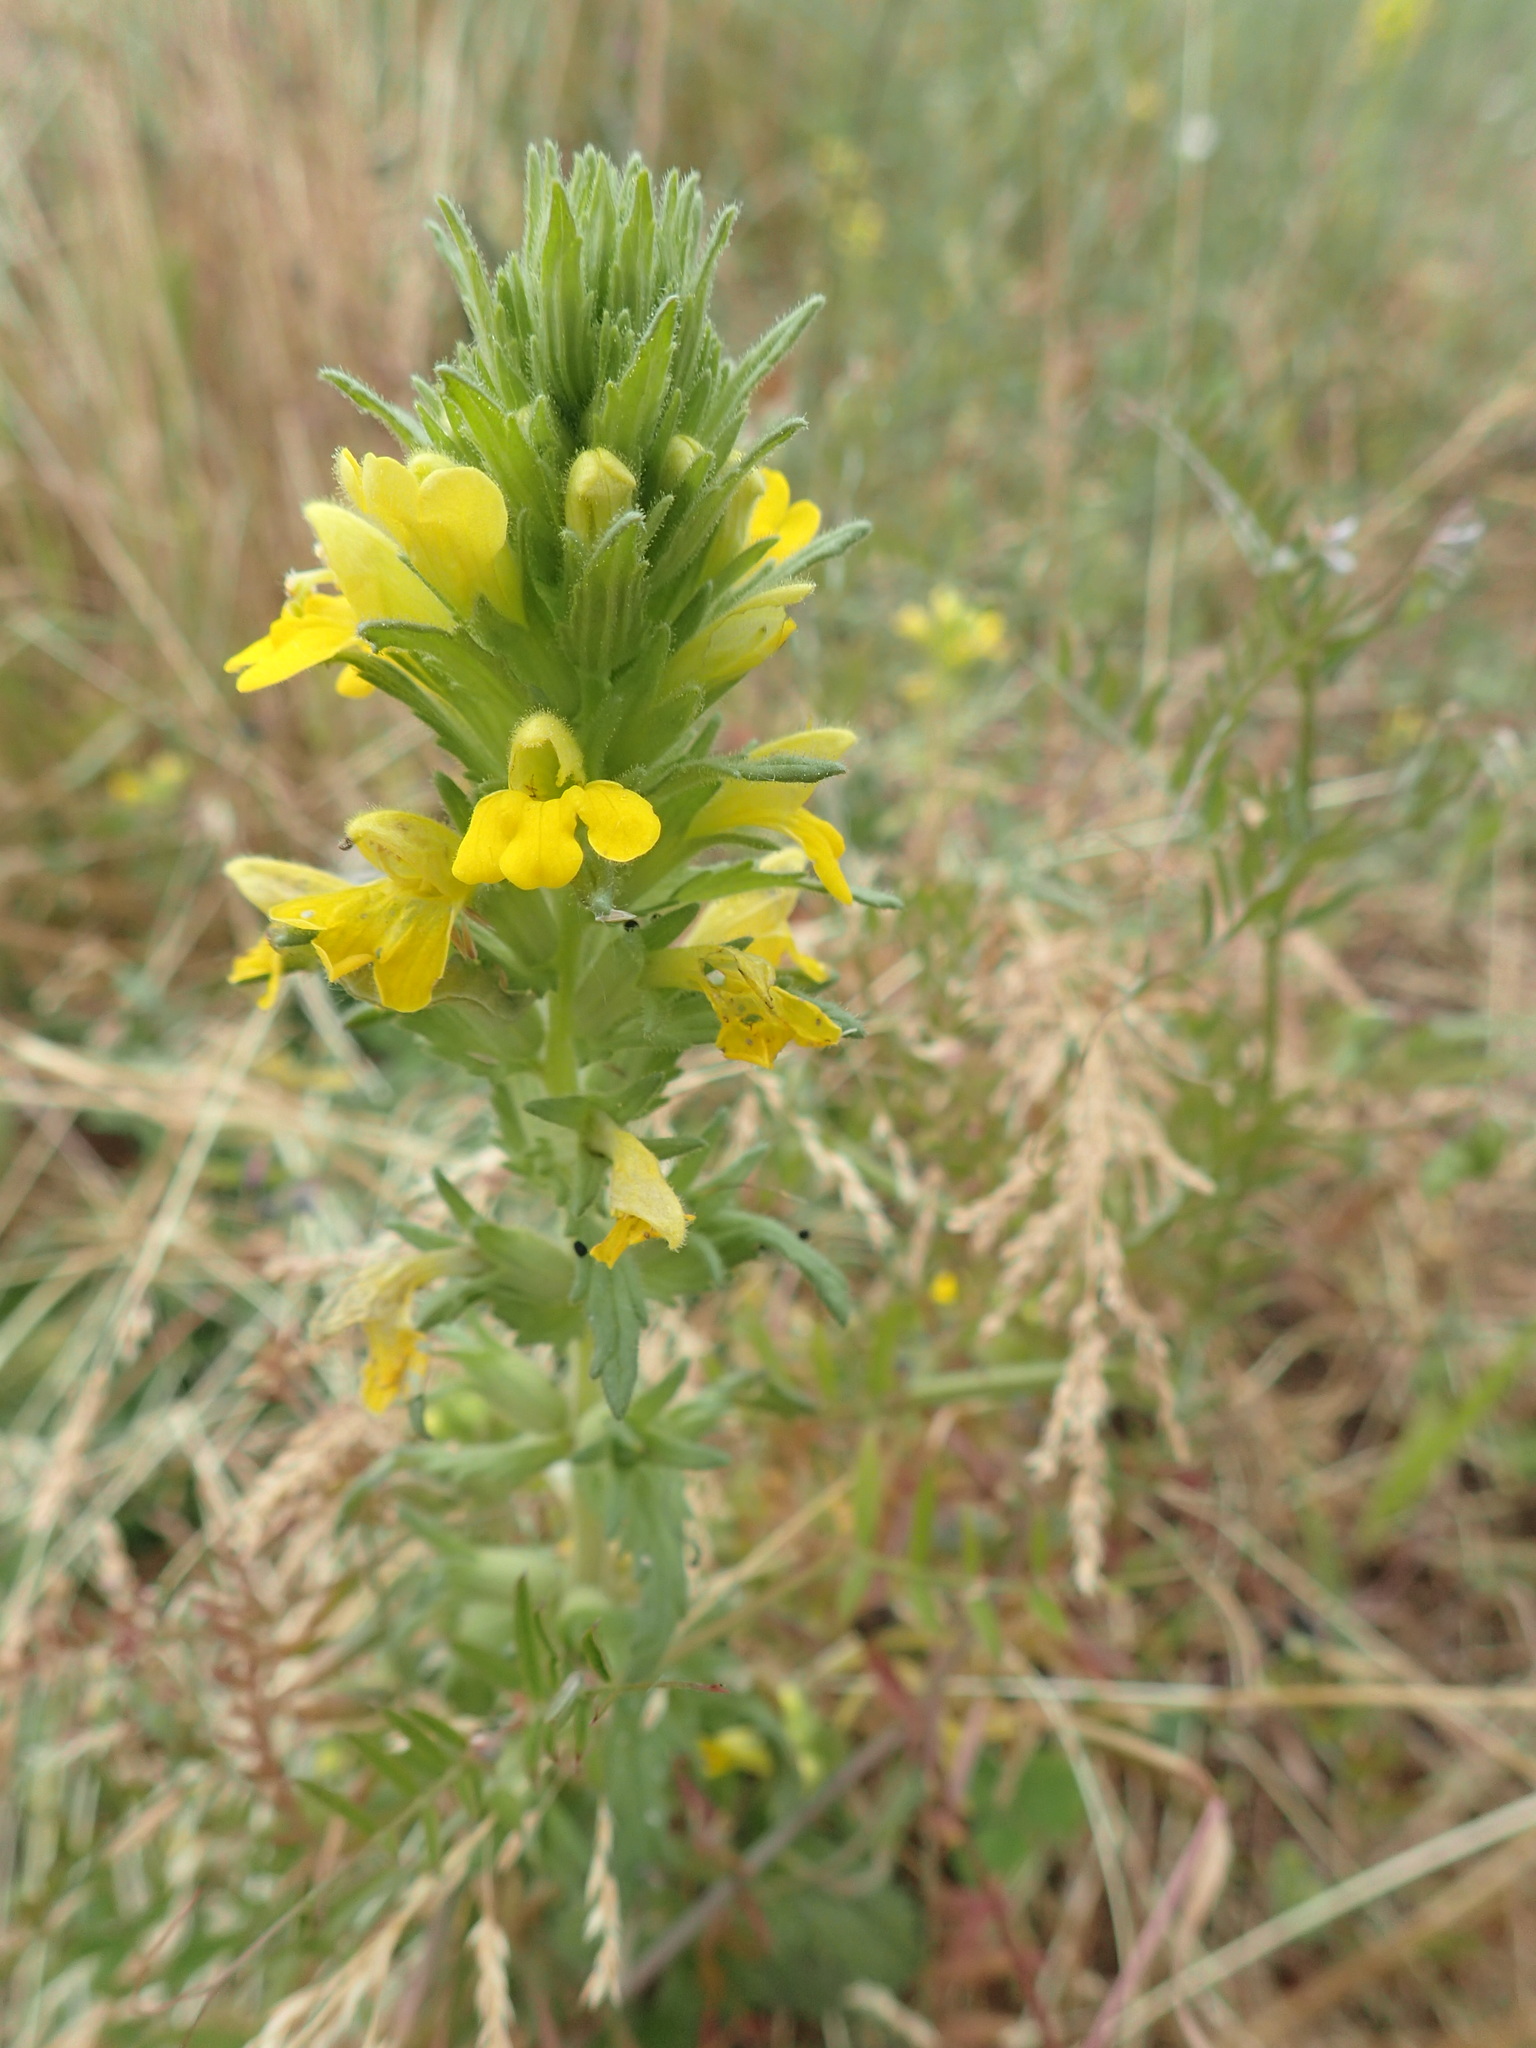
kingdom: Plantae
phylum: Tracheophyta
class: Magnoliopsida
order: Lamiales
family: Orobanchaceae
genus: Bellardia
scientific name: Bellardia viscosa
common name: Sticky parentucellia
